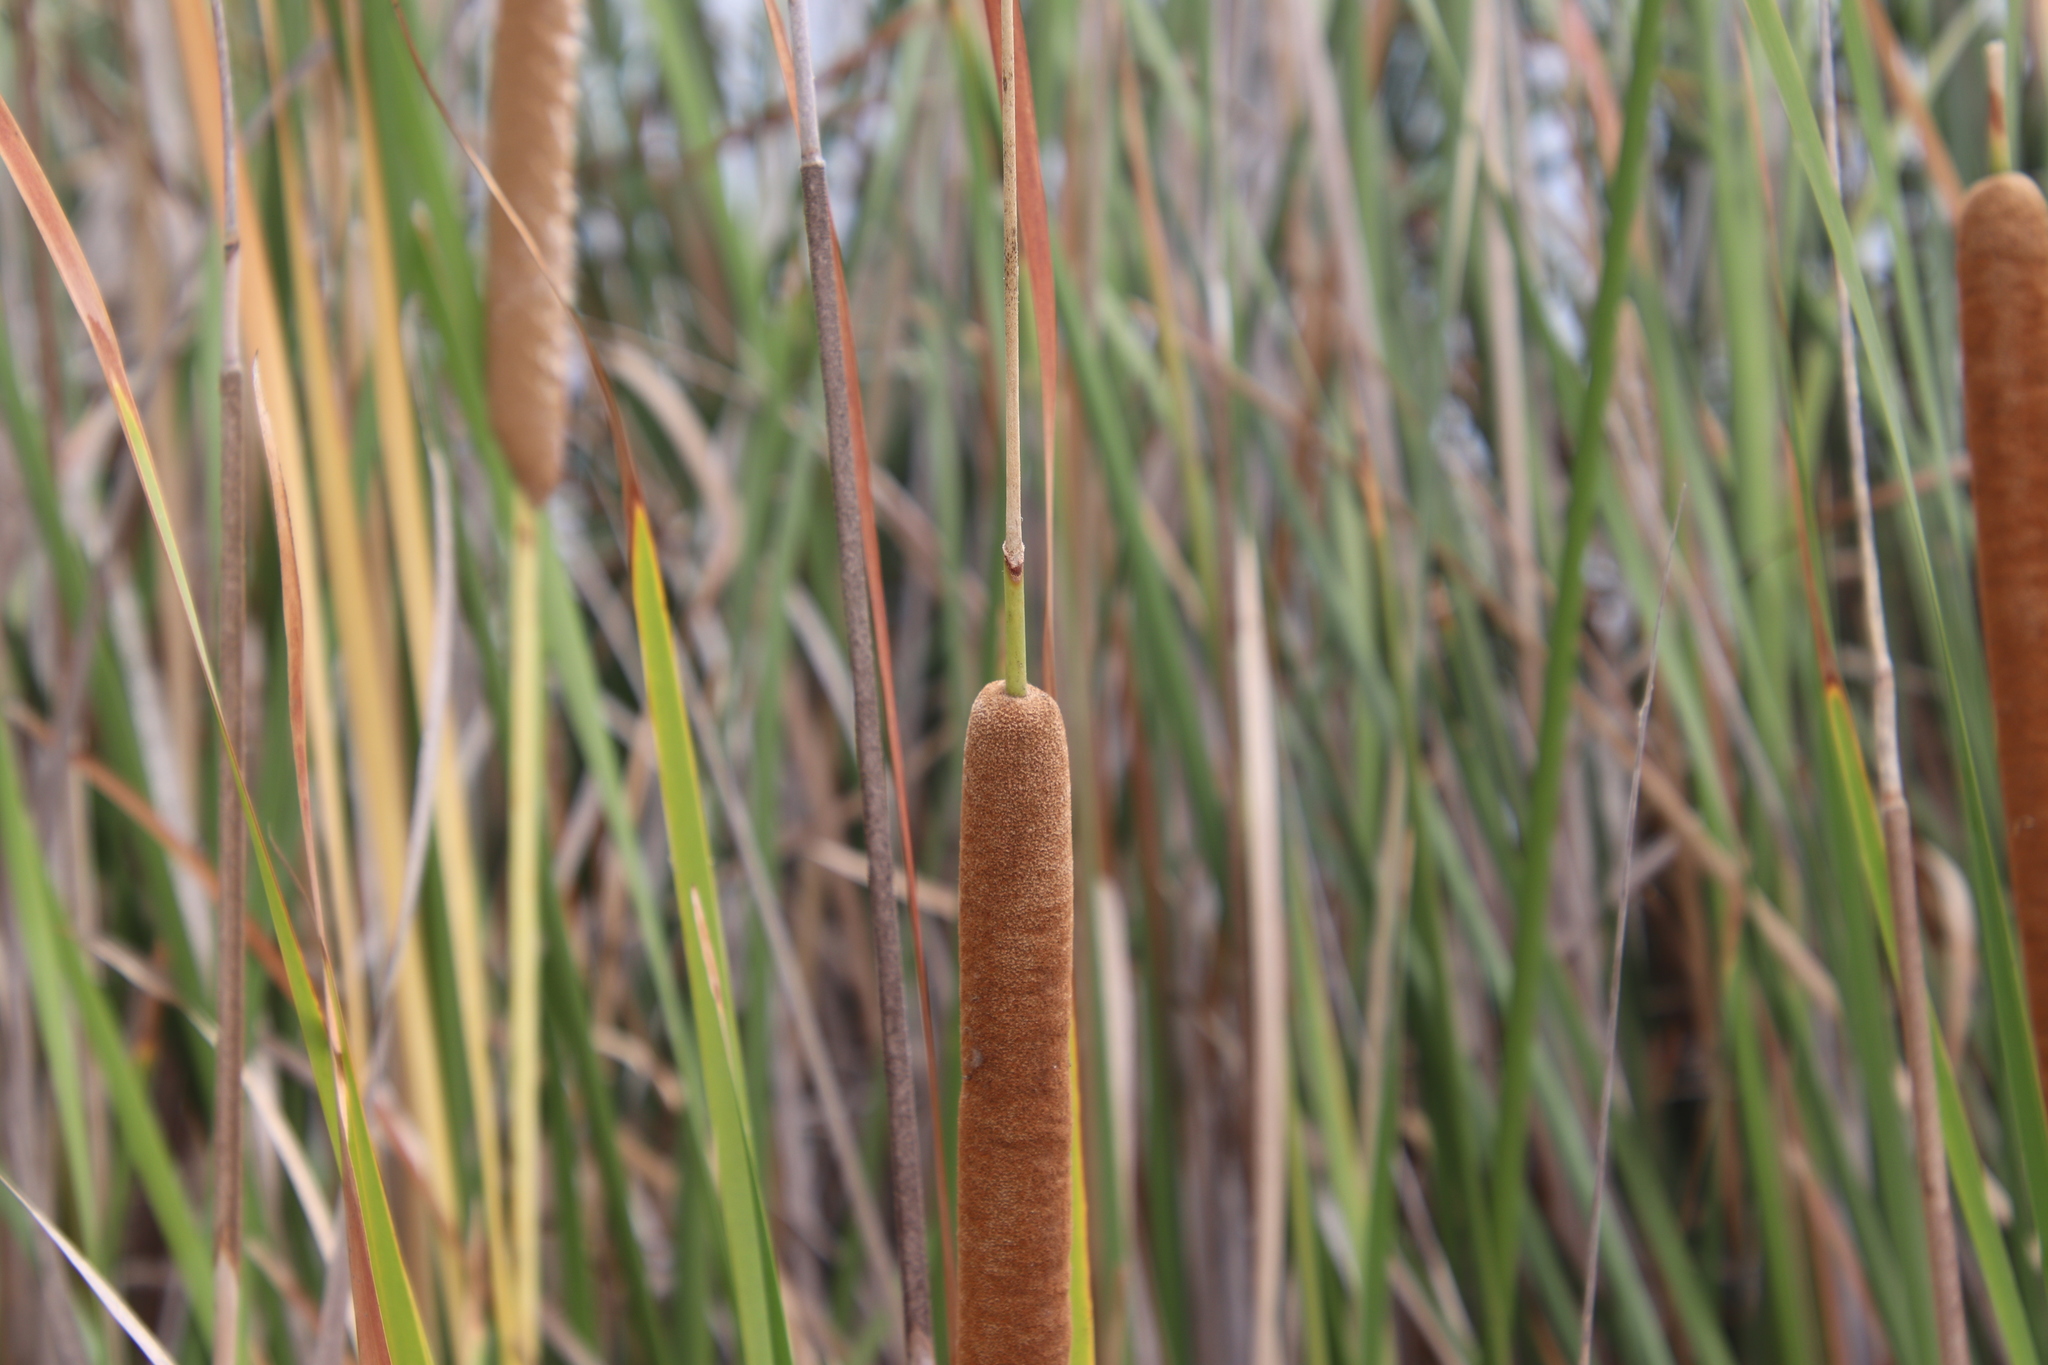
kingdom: Plantae
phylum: Tracheophyta
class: Liliopsida
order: Poales
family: Typhaceae
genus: Typha
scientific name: Typha domingensis
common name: Southern cattail
